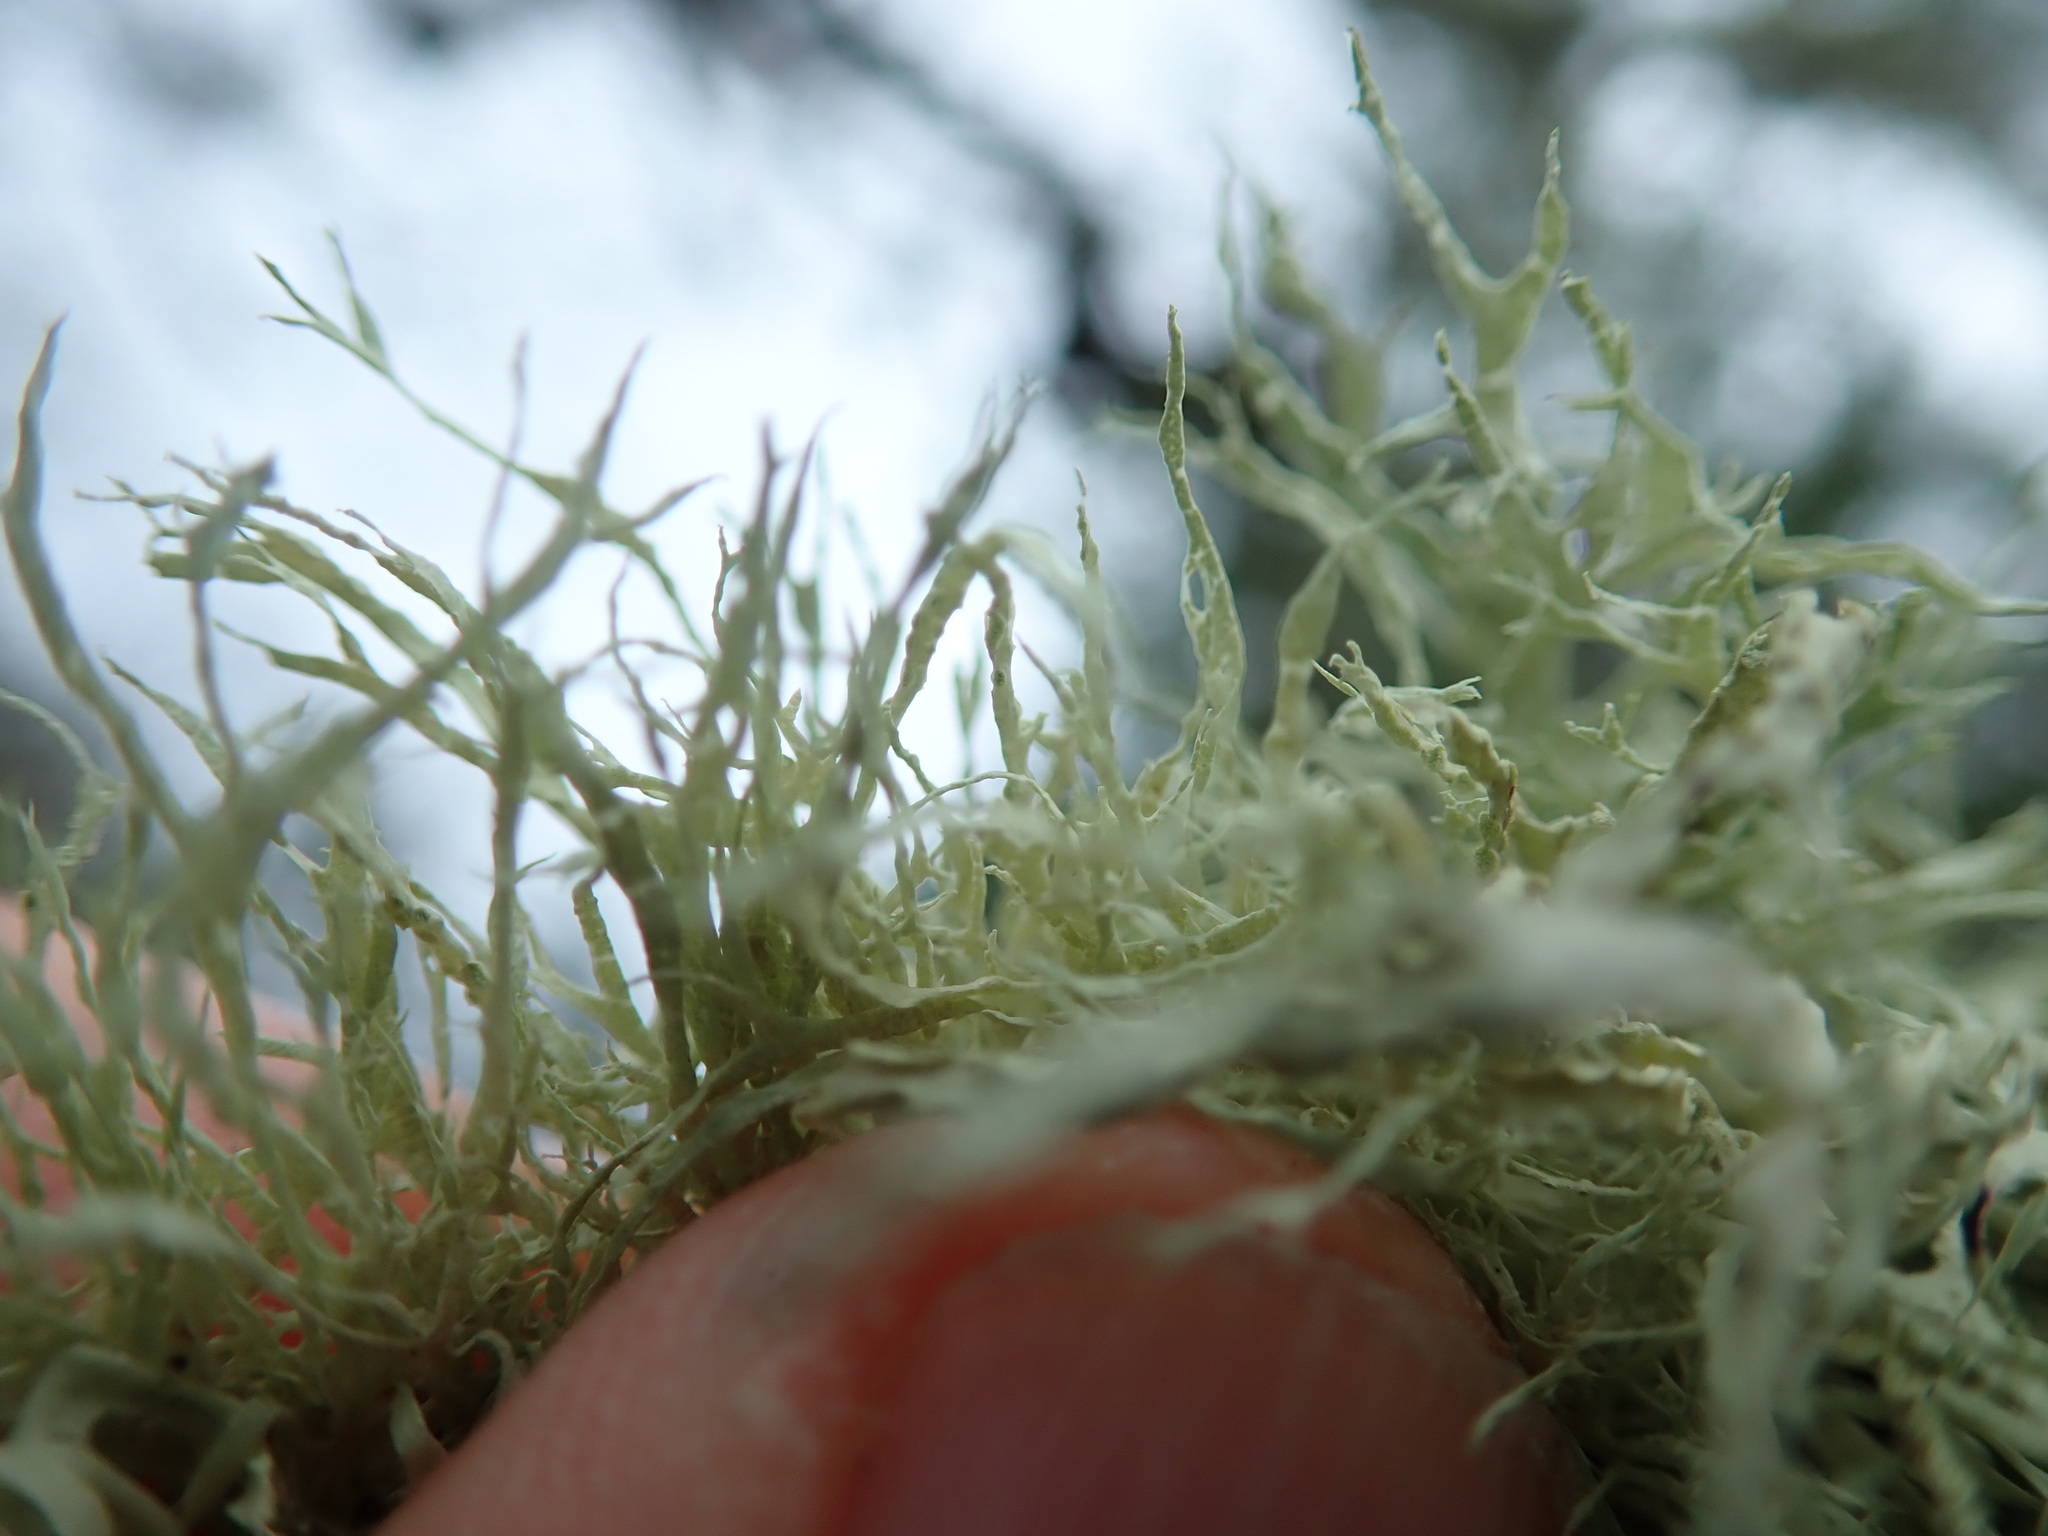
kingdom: Fungi
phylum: Ascomycota
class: Lecanoromycetes
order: Lecanorales
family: Ramalinaceae
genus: Ramalina
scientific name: Ramalina farinacea
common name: Farinose cartilage lichen
